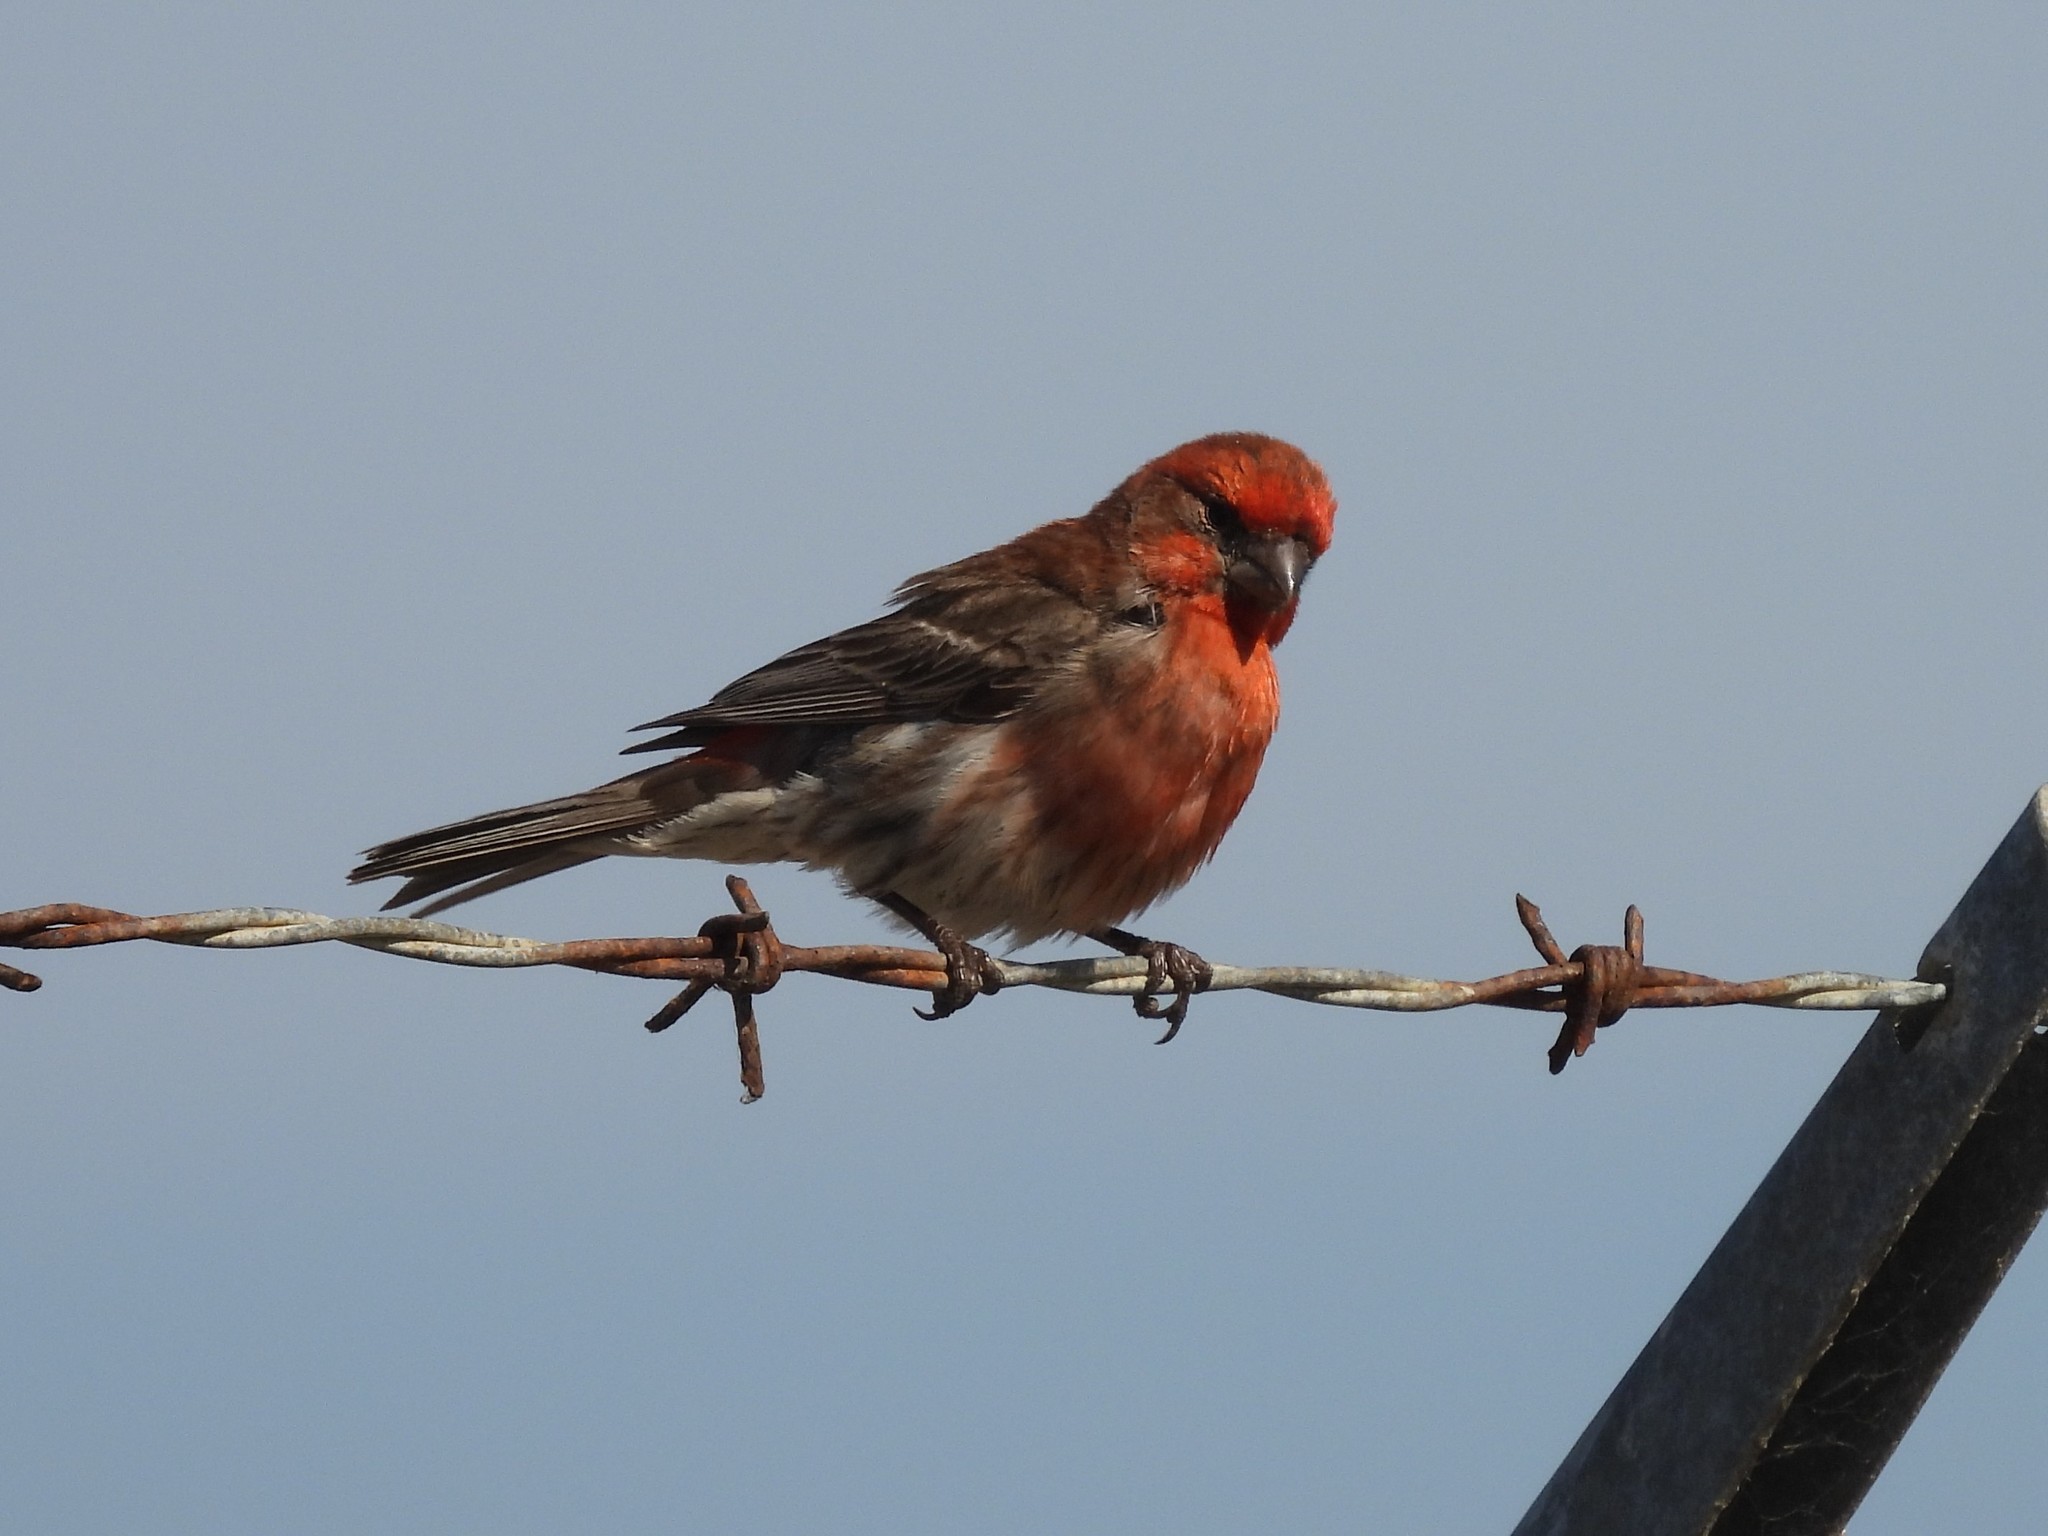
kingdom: Animalia
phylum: Chordata
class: Aves
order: Passeriformes
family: Fringillidae
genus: Haemorhous
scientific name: Haemorhous mexicanus
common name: House finch
